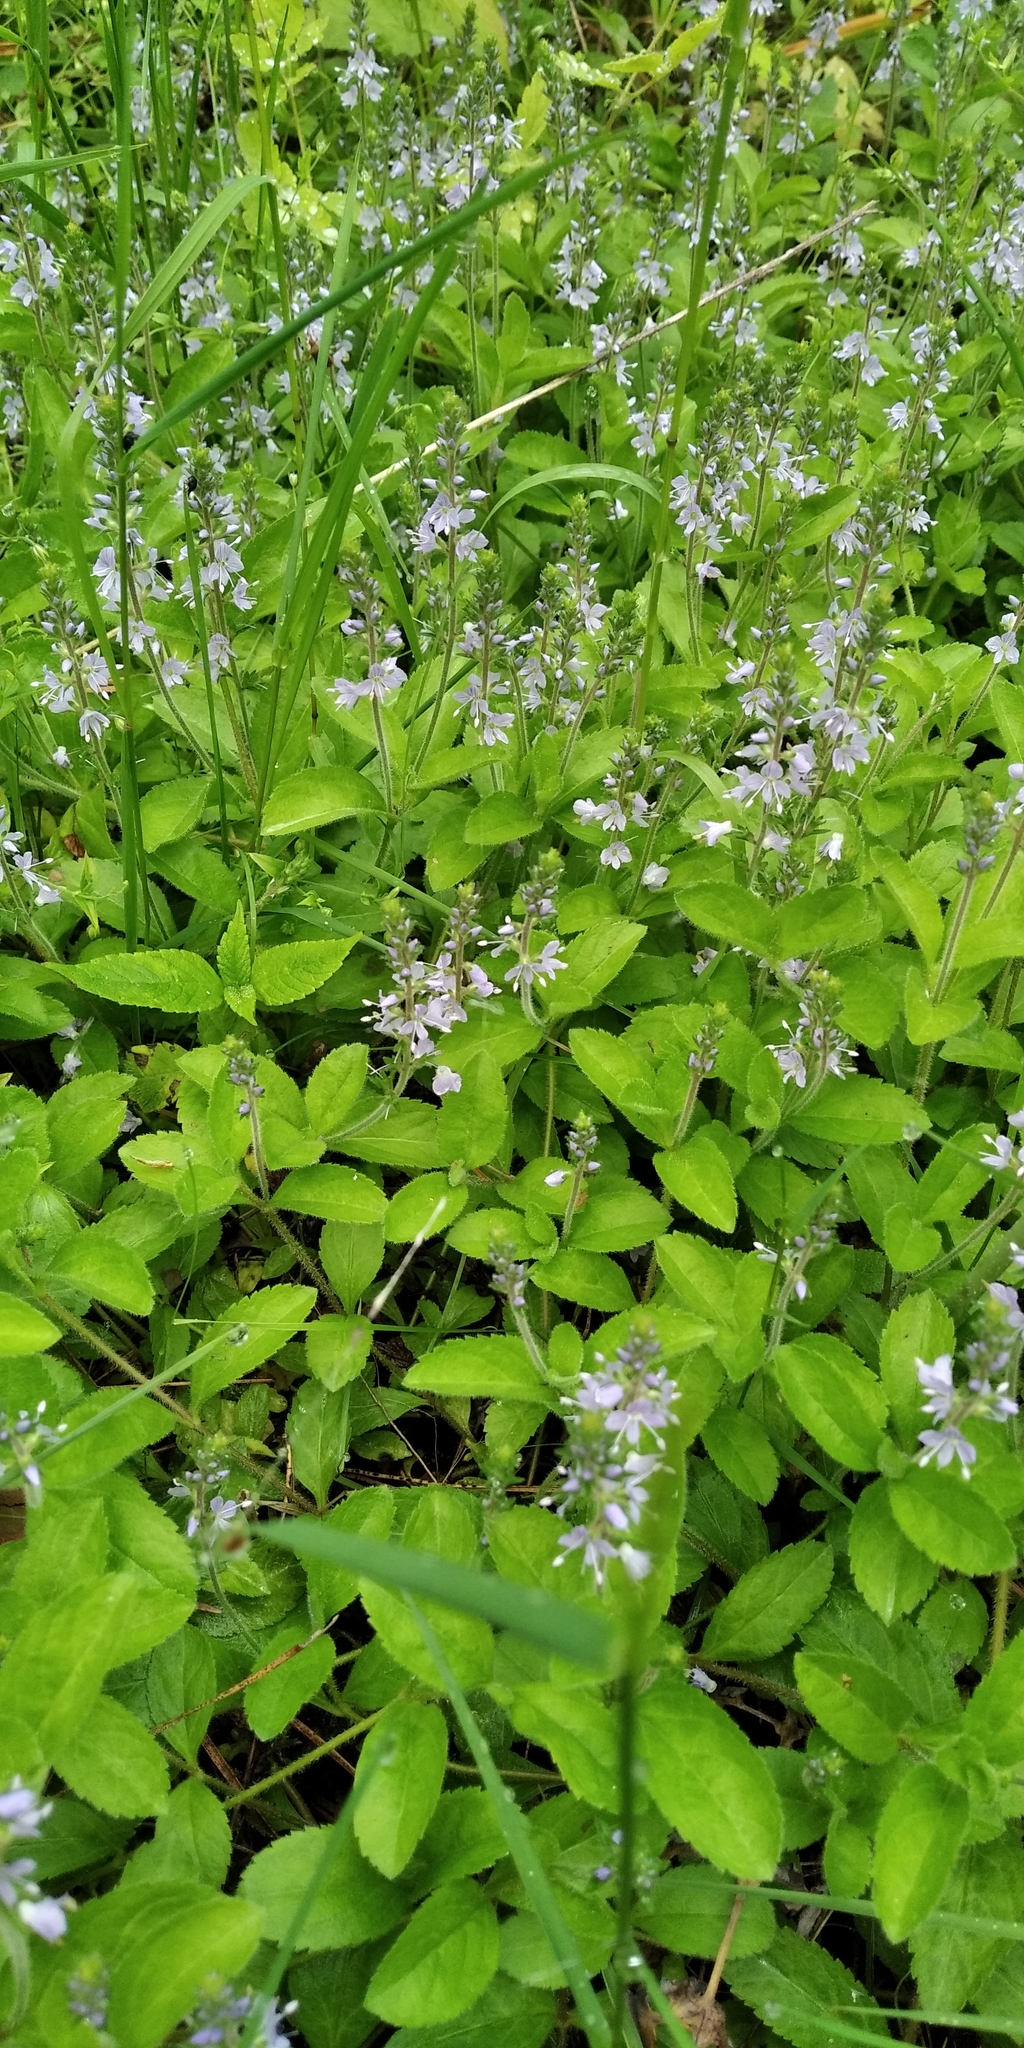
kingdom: Plantae
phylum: Tracheophyta
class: Magnoliopsida
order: Lamiales
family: Plantaginaceae
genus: Veronica
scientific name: Veronica officinalis
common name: Common speedwell
